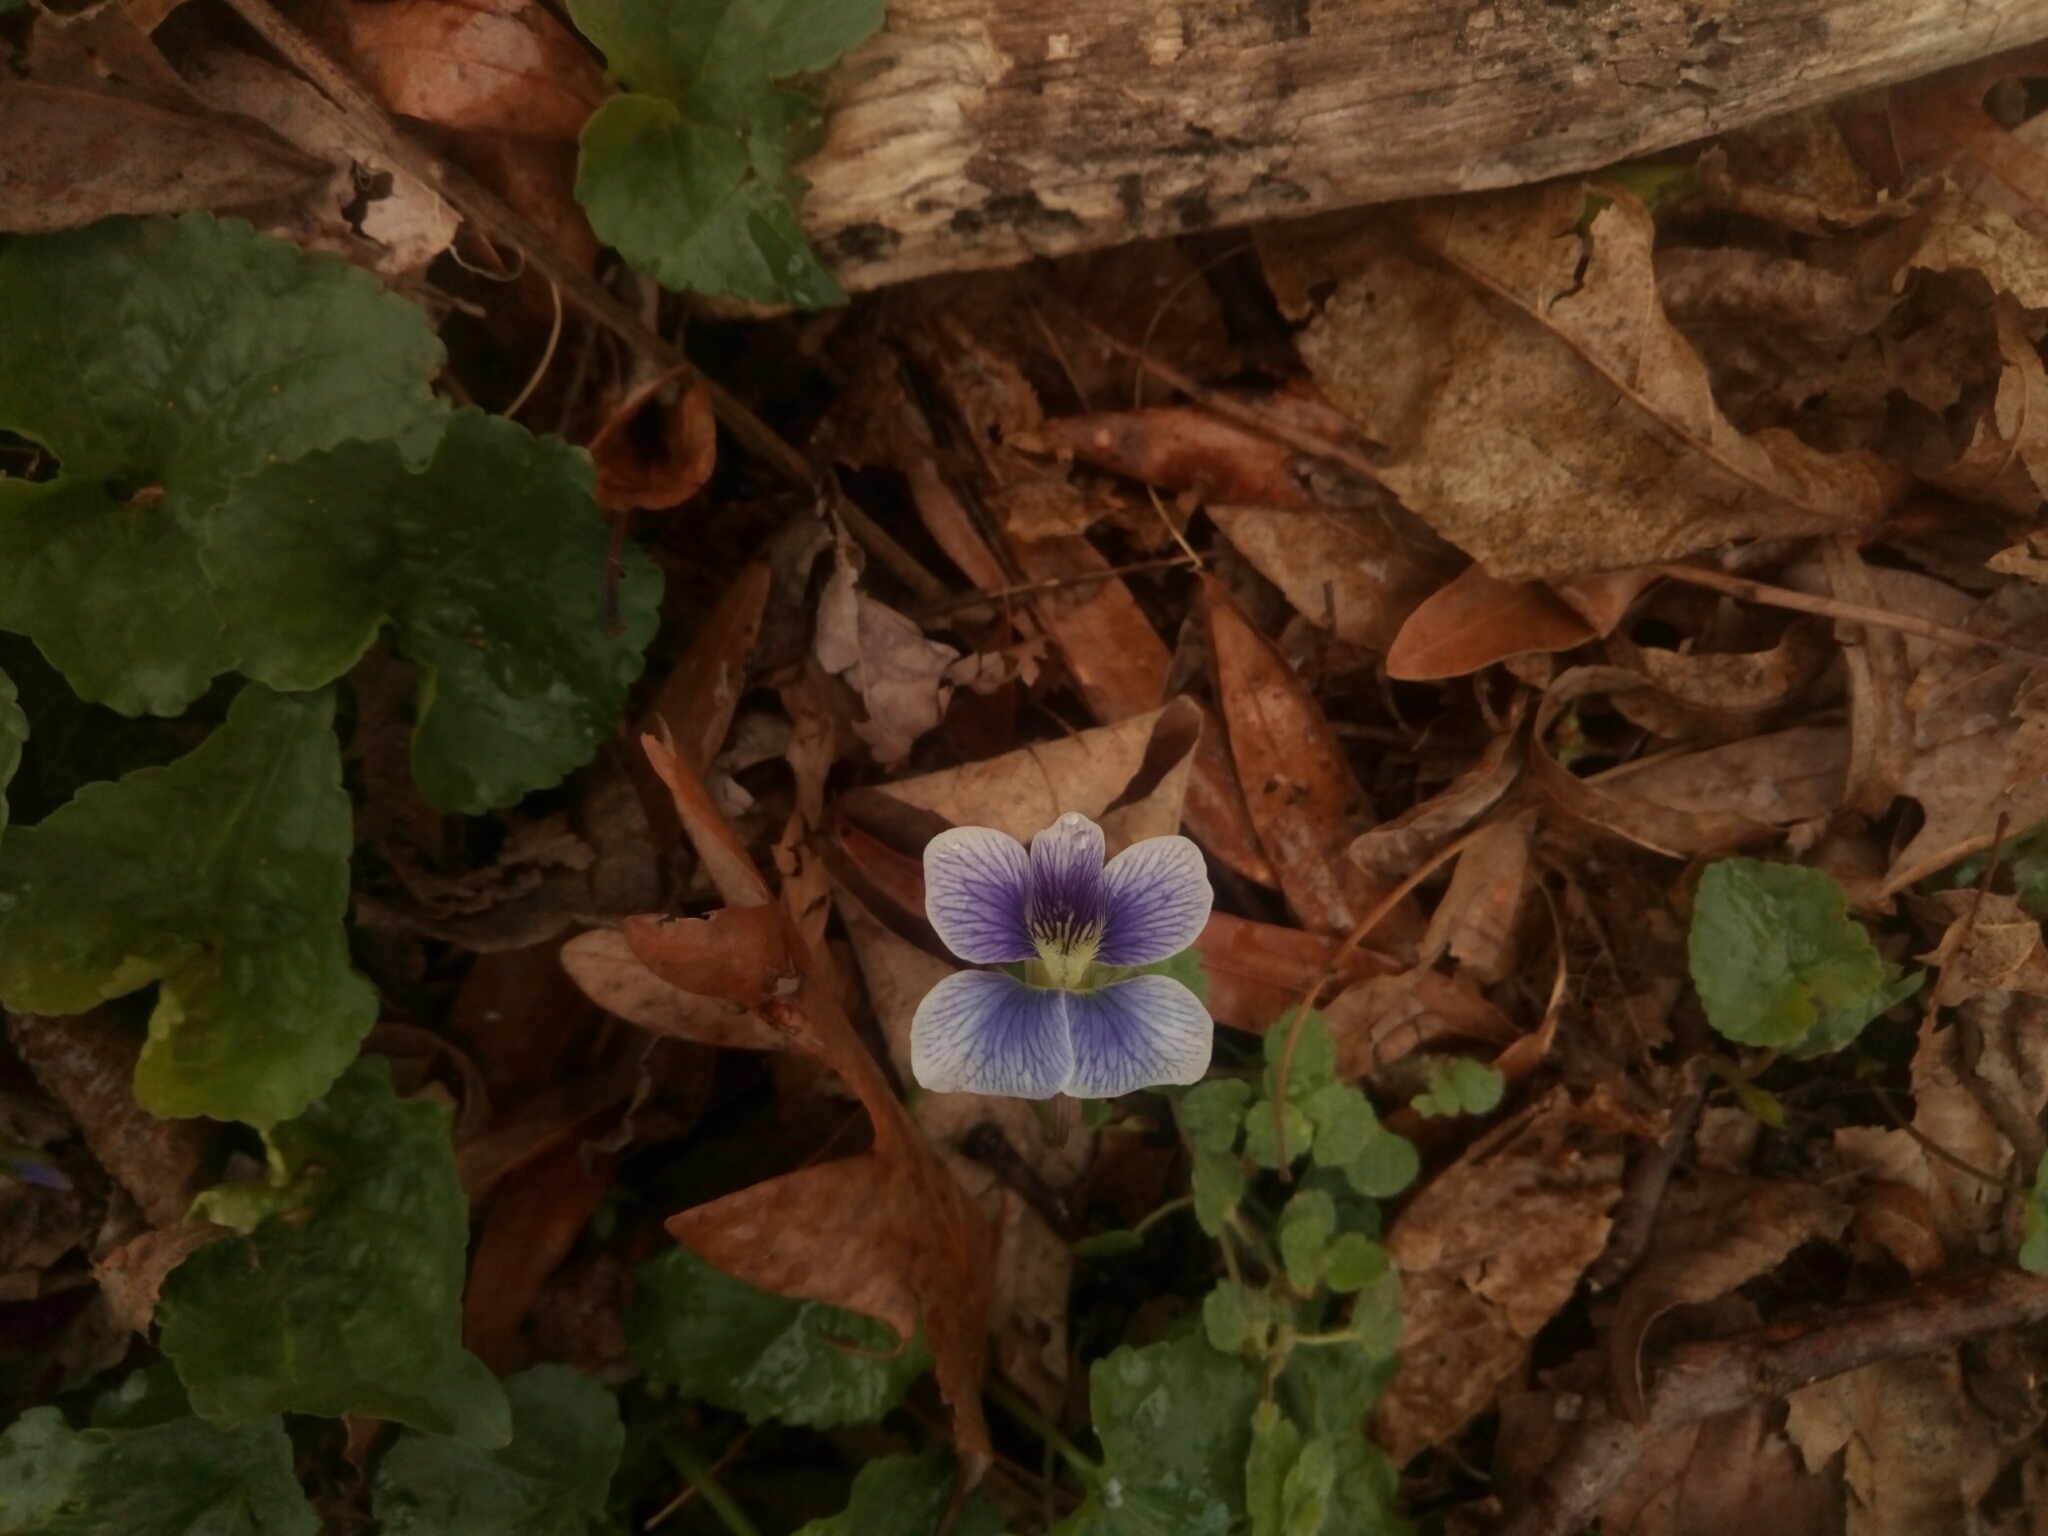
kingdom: Plantae
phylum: Tracheophyta
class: Magnoliopsida
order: Malpighiales
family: Violaceae
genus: Viola
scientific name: Viola sororia
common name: Dooryard violet
